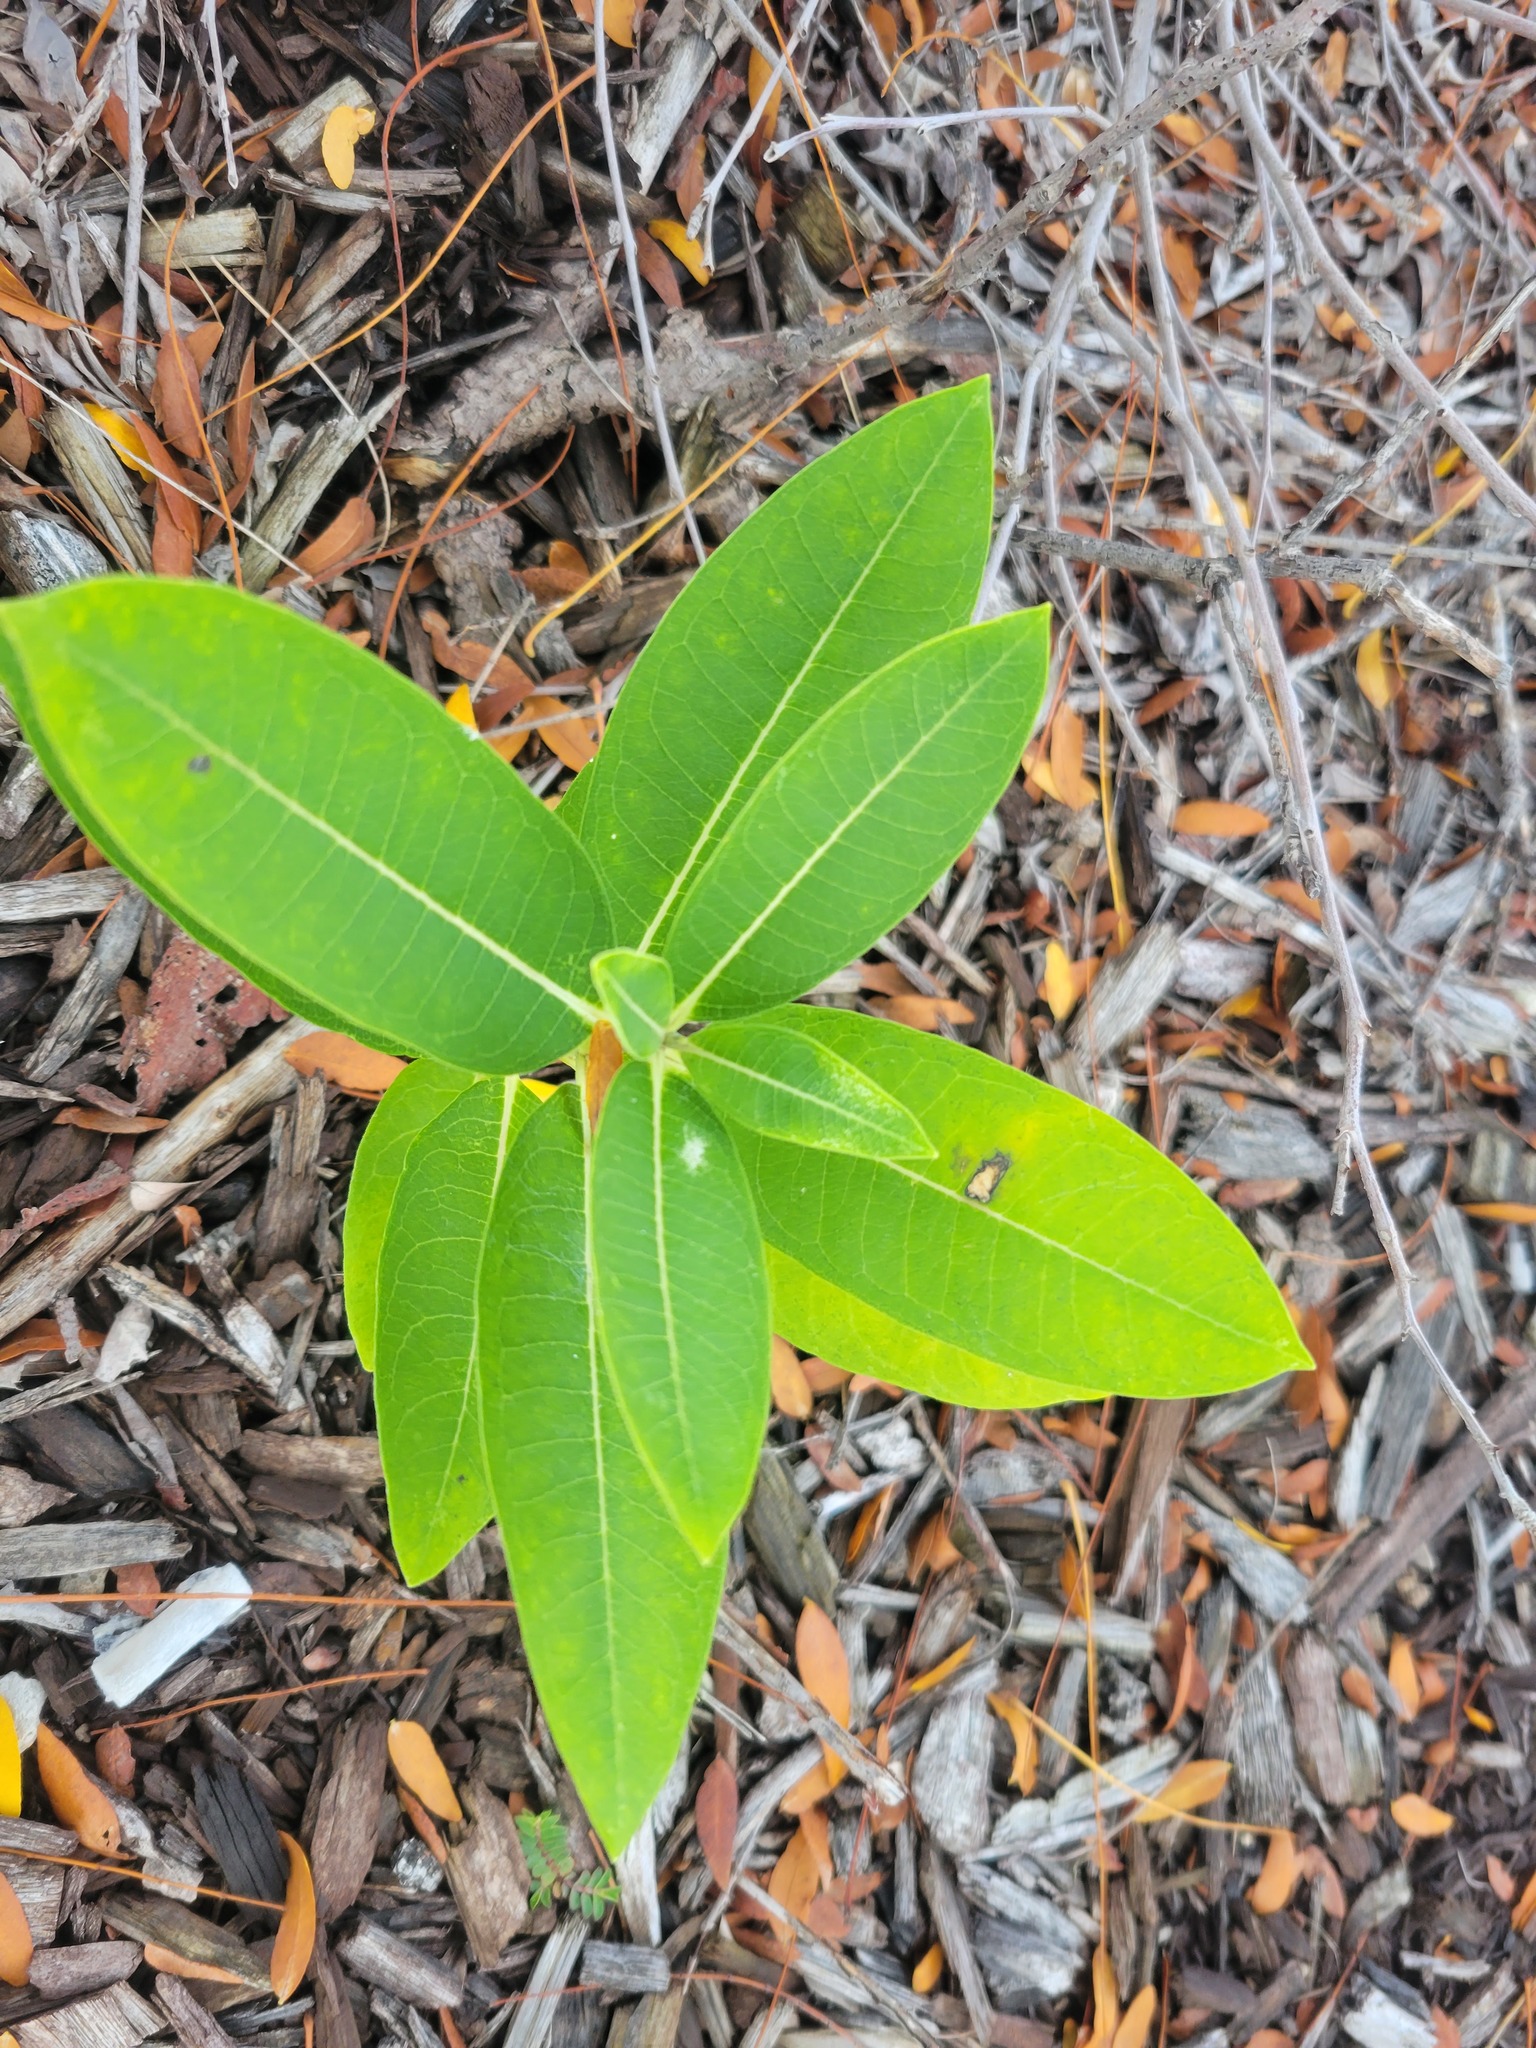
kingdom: Plantae
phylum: Tracheophyta
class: Magnoliopsida
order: Gentianales
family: Apocynaceae
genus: Asclepias
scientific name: Asclepias syriaca
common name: Common milkweed
